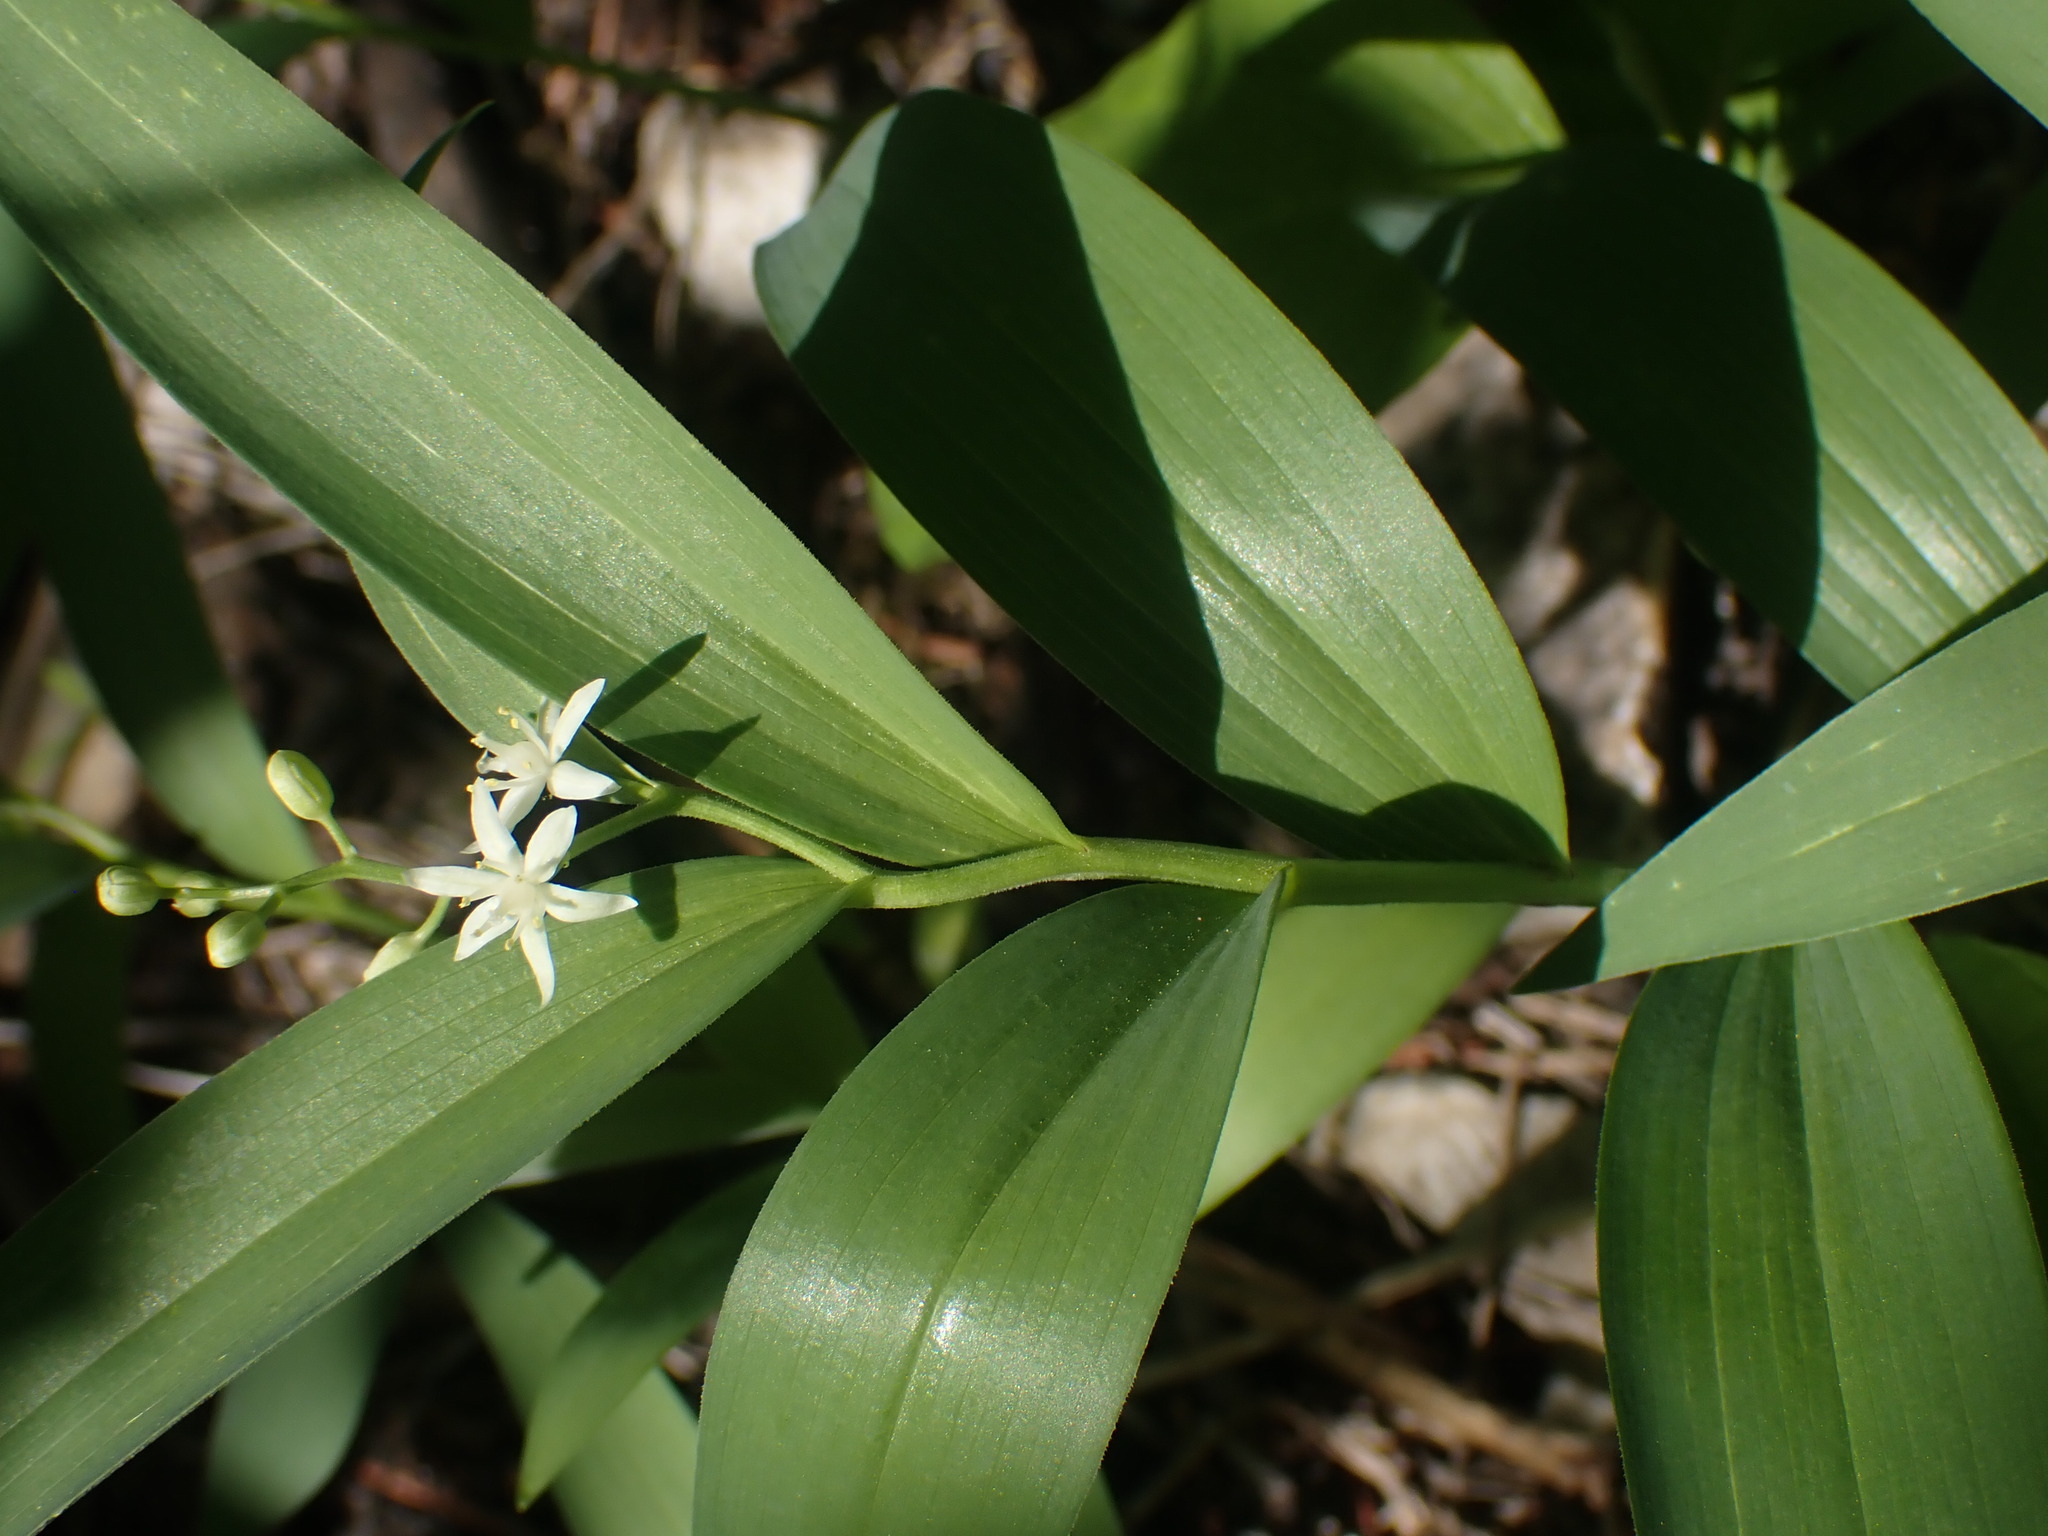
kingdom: Plantae
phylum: Tracheophyta
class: Liliopsida
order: Asparagales
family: Asparagaceae
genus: Maianthemum
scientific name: Maianthemum stellatum
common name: Little false solomon's seal
